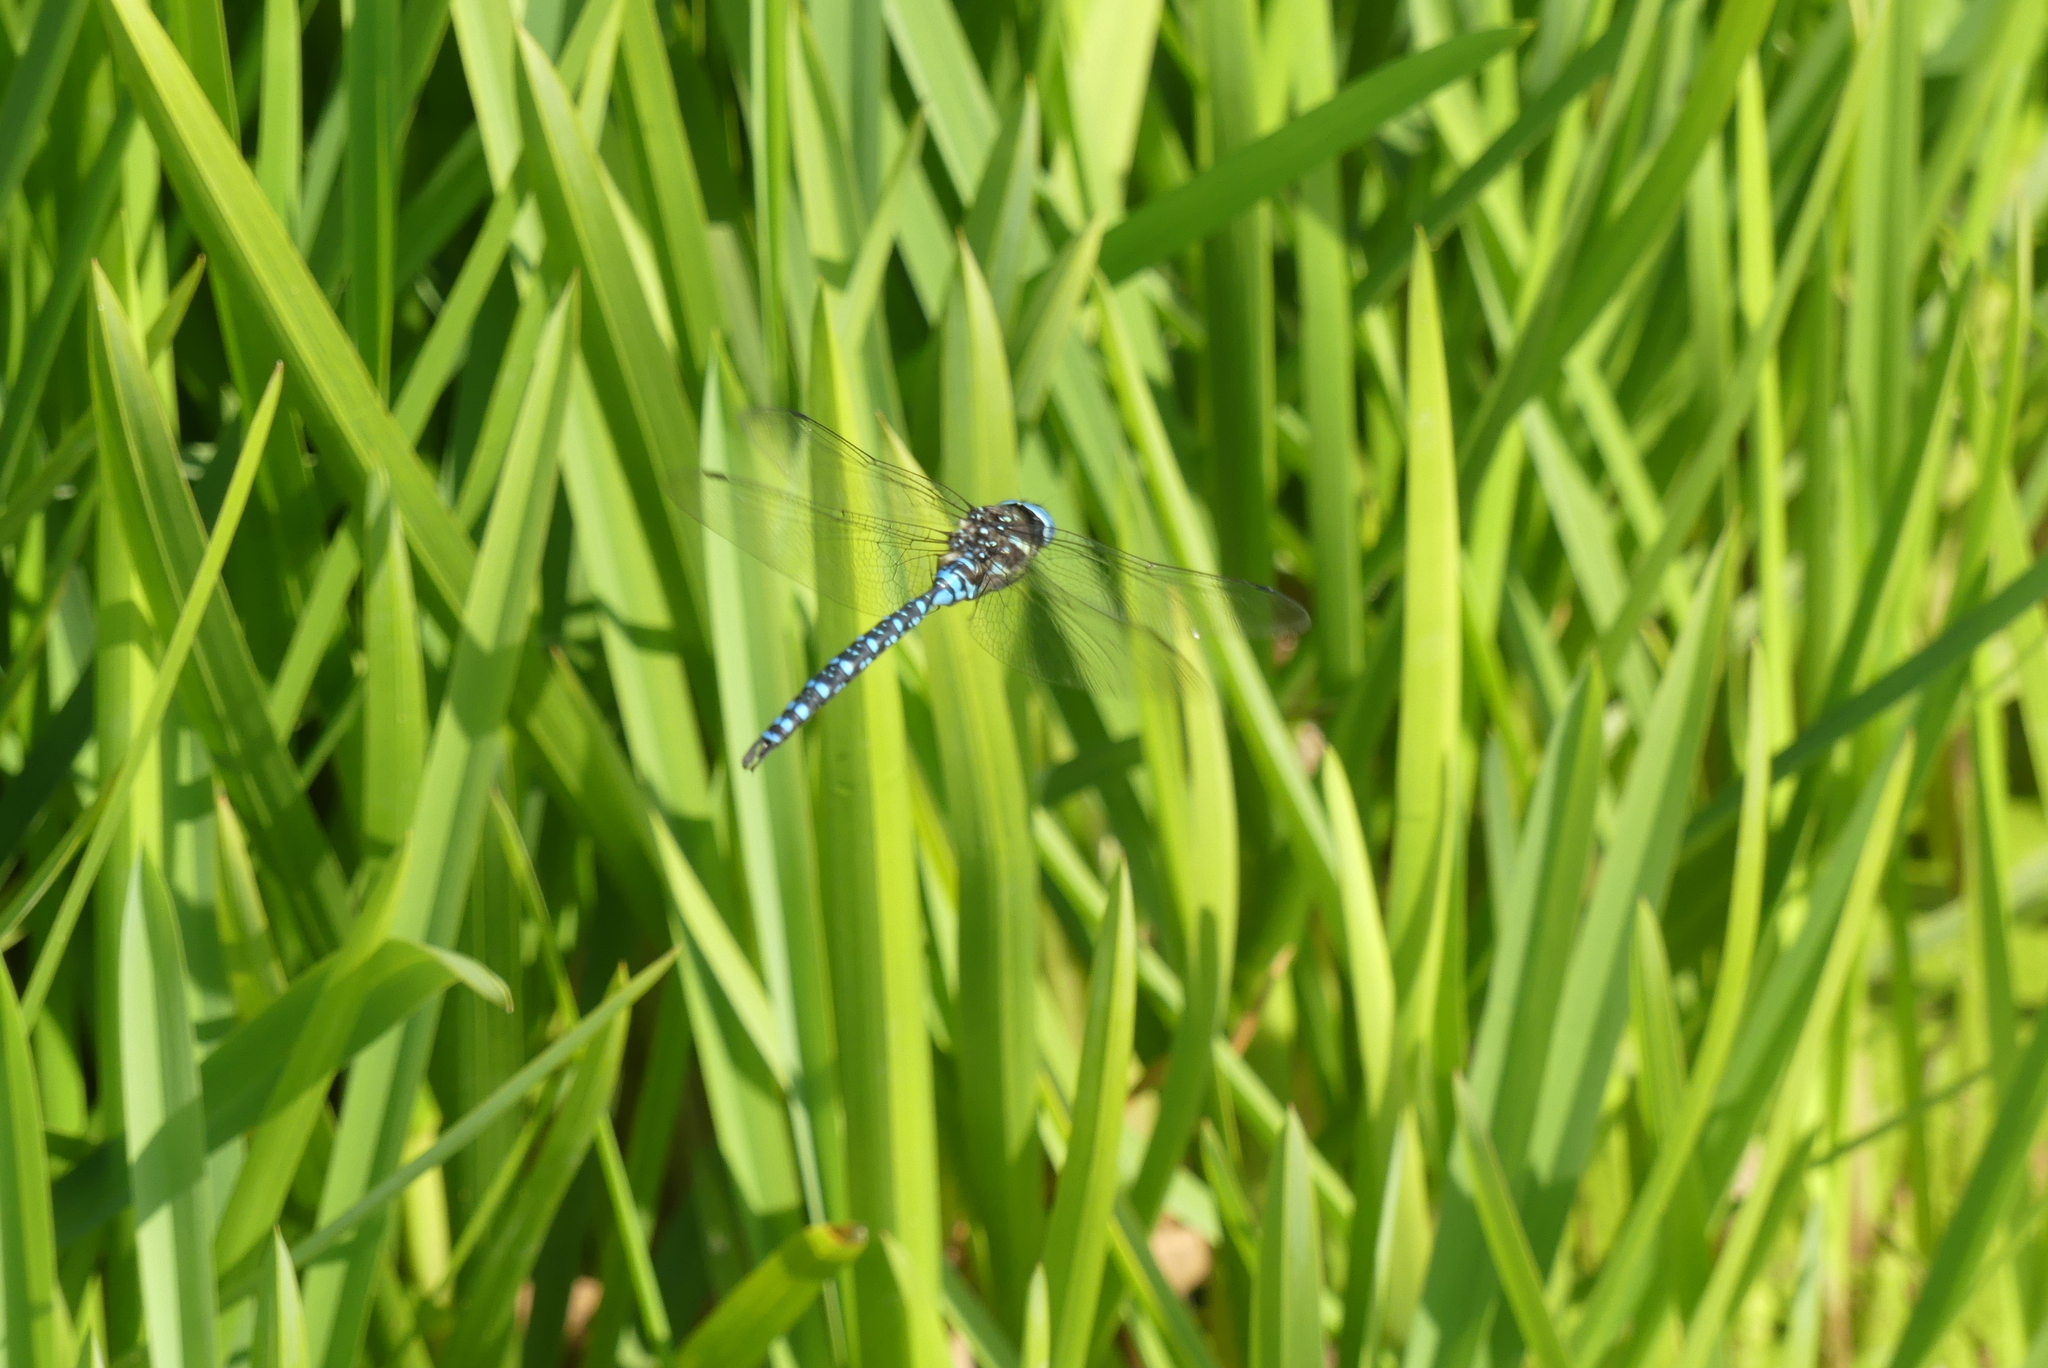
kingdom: Animalia
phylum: Arthropoda
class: Insecta
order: Odonata
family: Aeshnidae
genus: Aeshna
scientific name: Aeshna palmata
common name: Paddle-tailed darner
